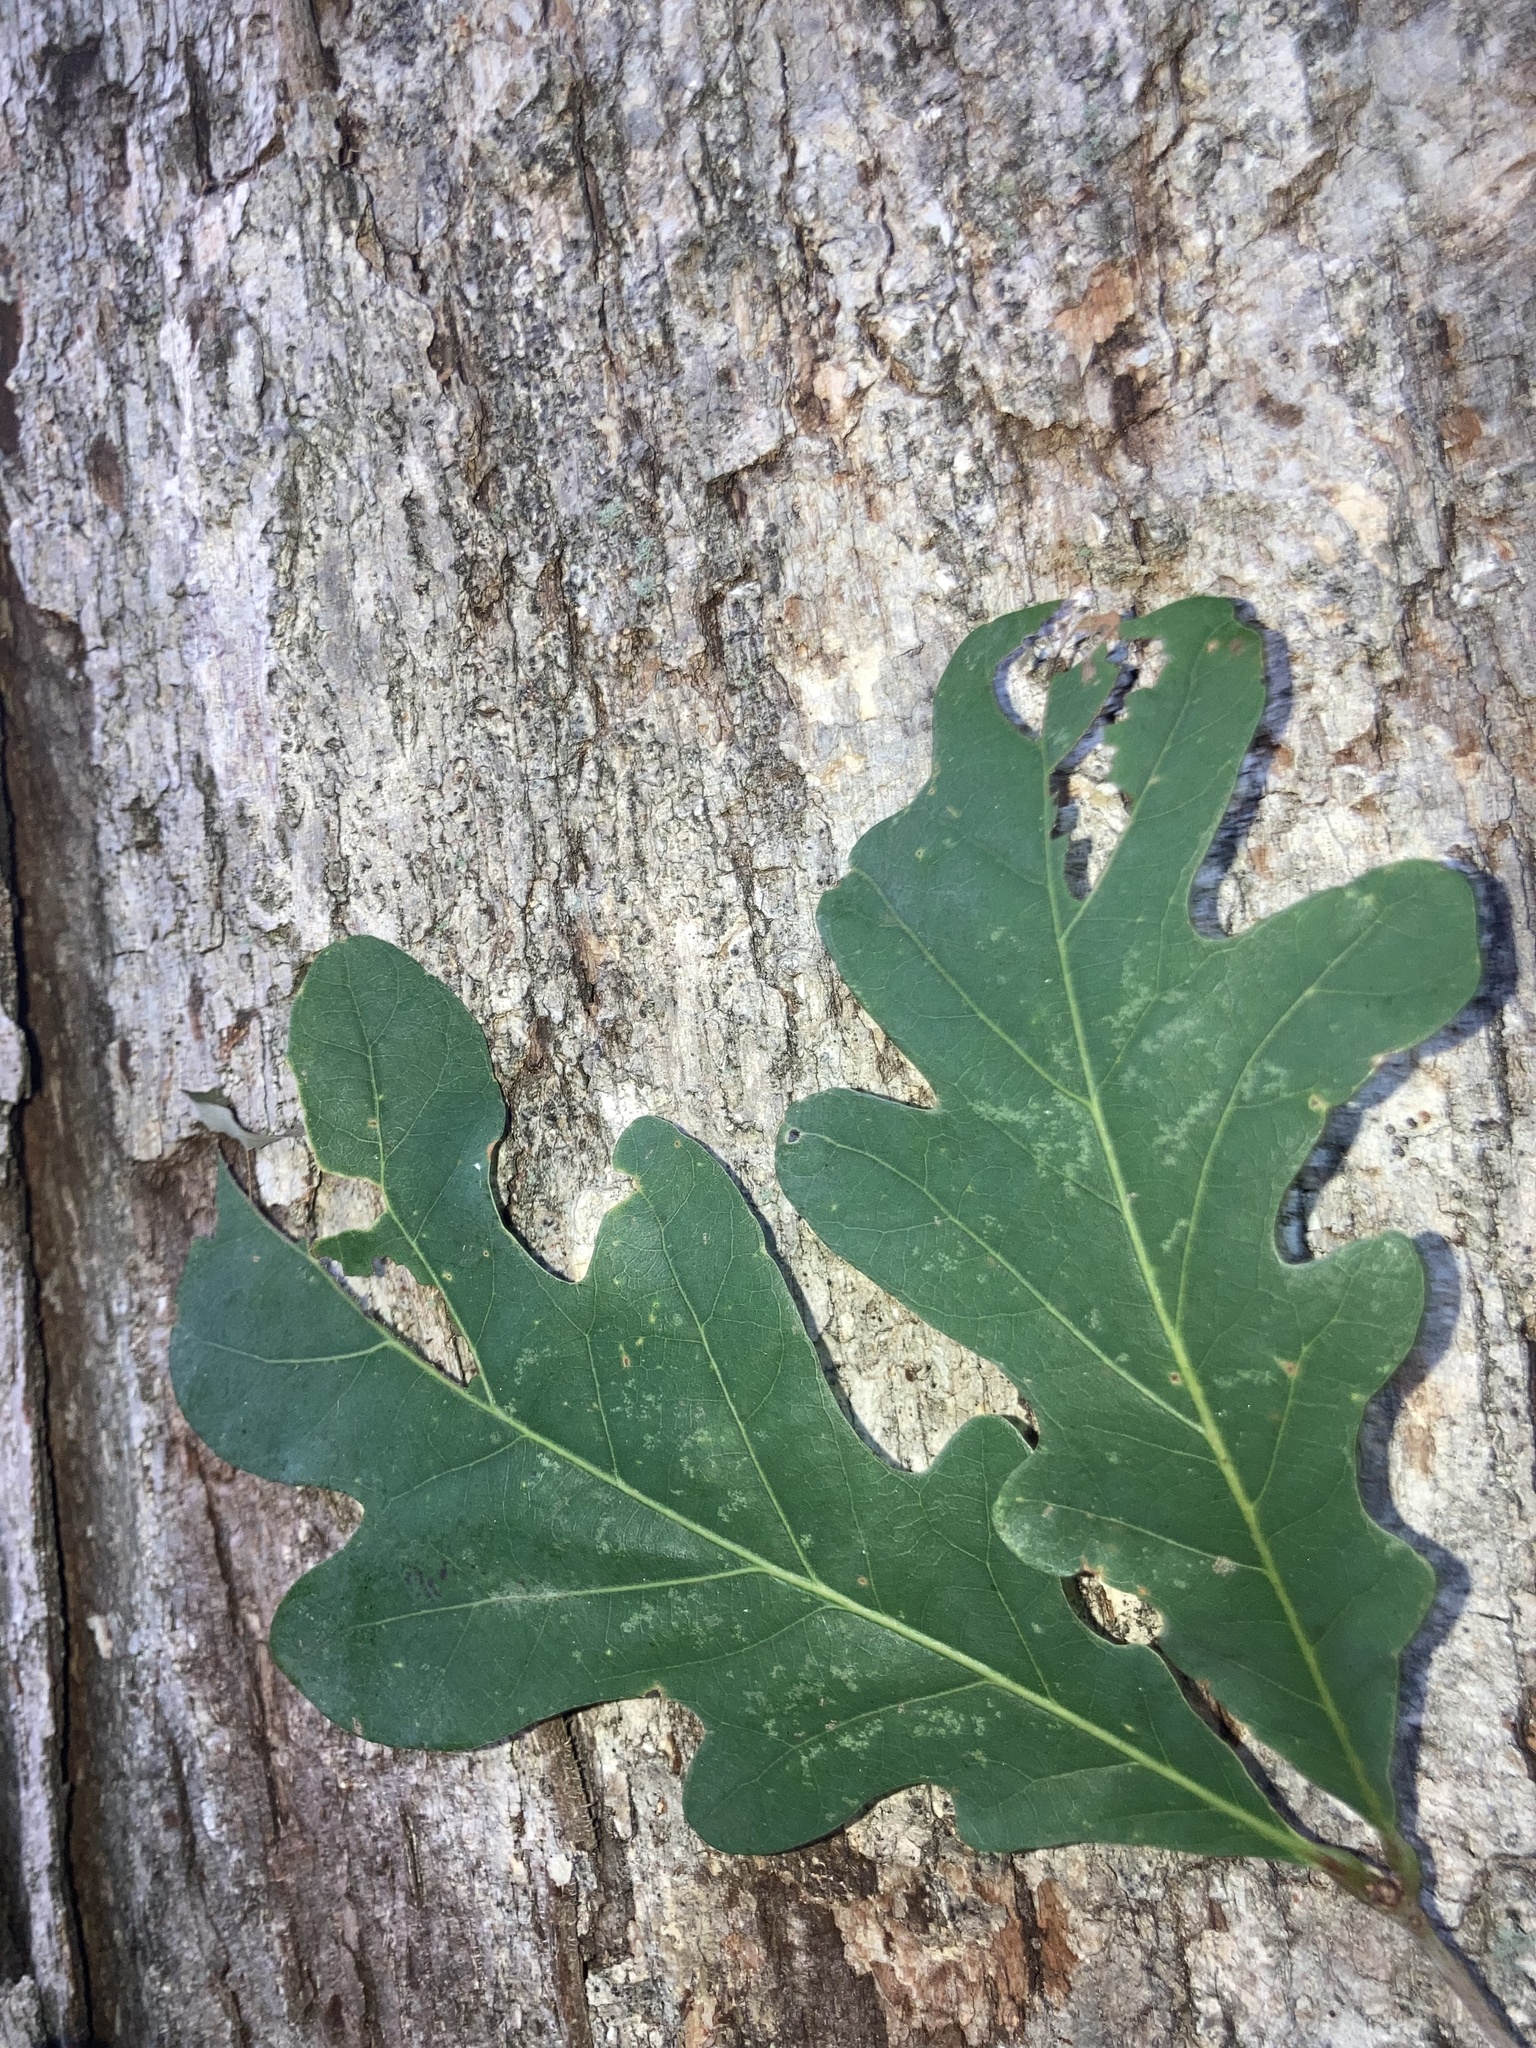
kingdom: Plantae
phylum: Tracheophyta
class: Magnoliopsida
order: Fagales
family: Fagaceae
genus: Quercus
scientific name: Quercus alba
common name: White oak
